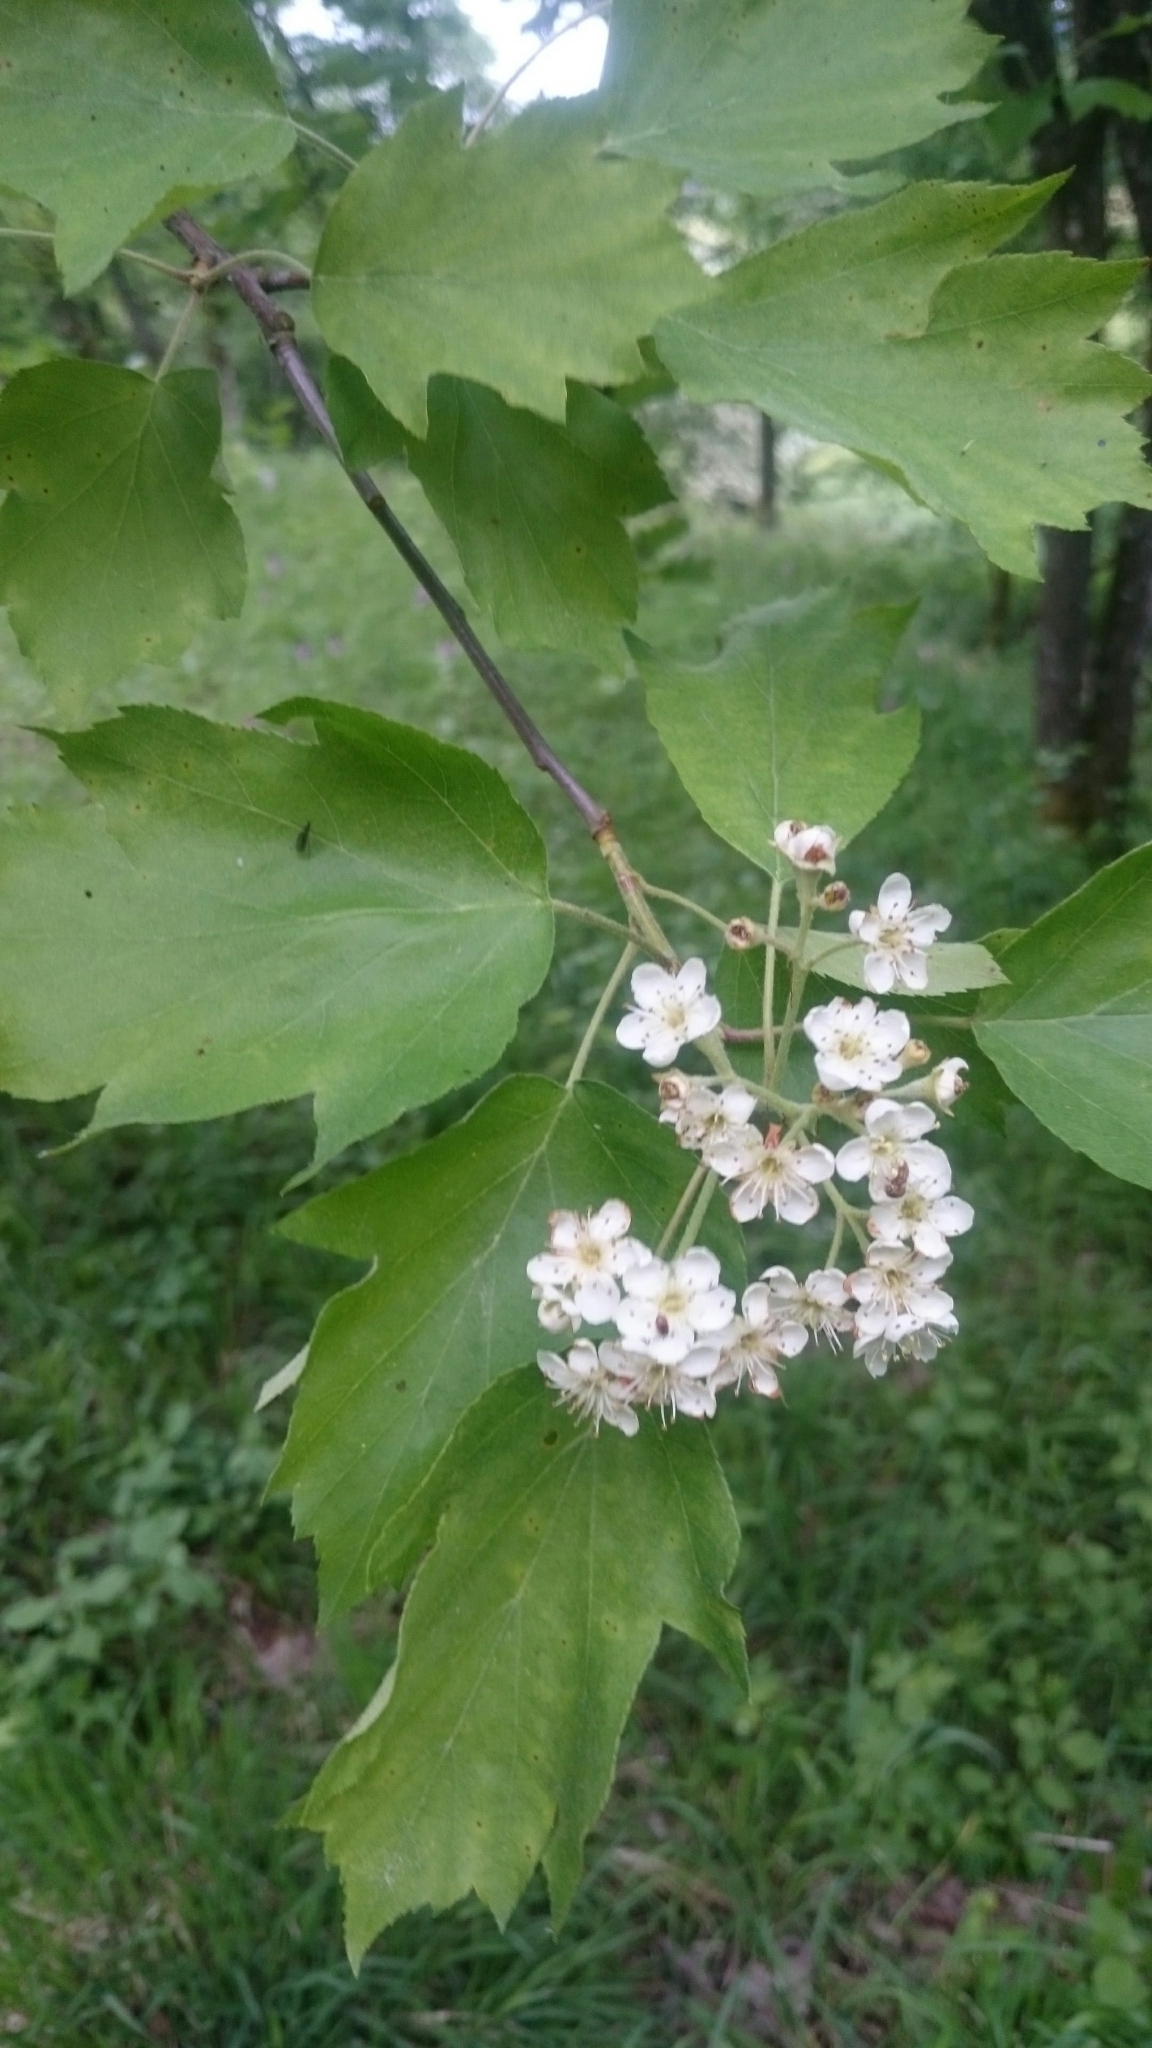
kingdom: Plantae
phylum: Tracheophyta
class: Magnoliopsida
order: Rosales
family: Rosaceae
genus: Torminalis
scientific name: Torminalis glaberrima
